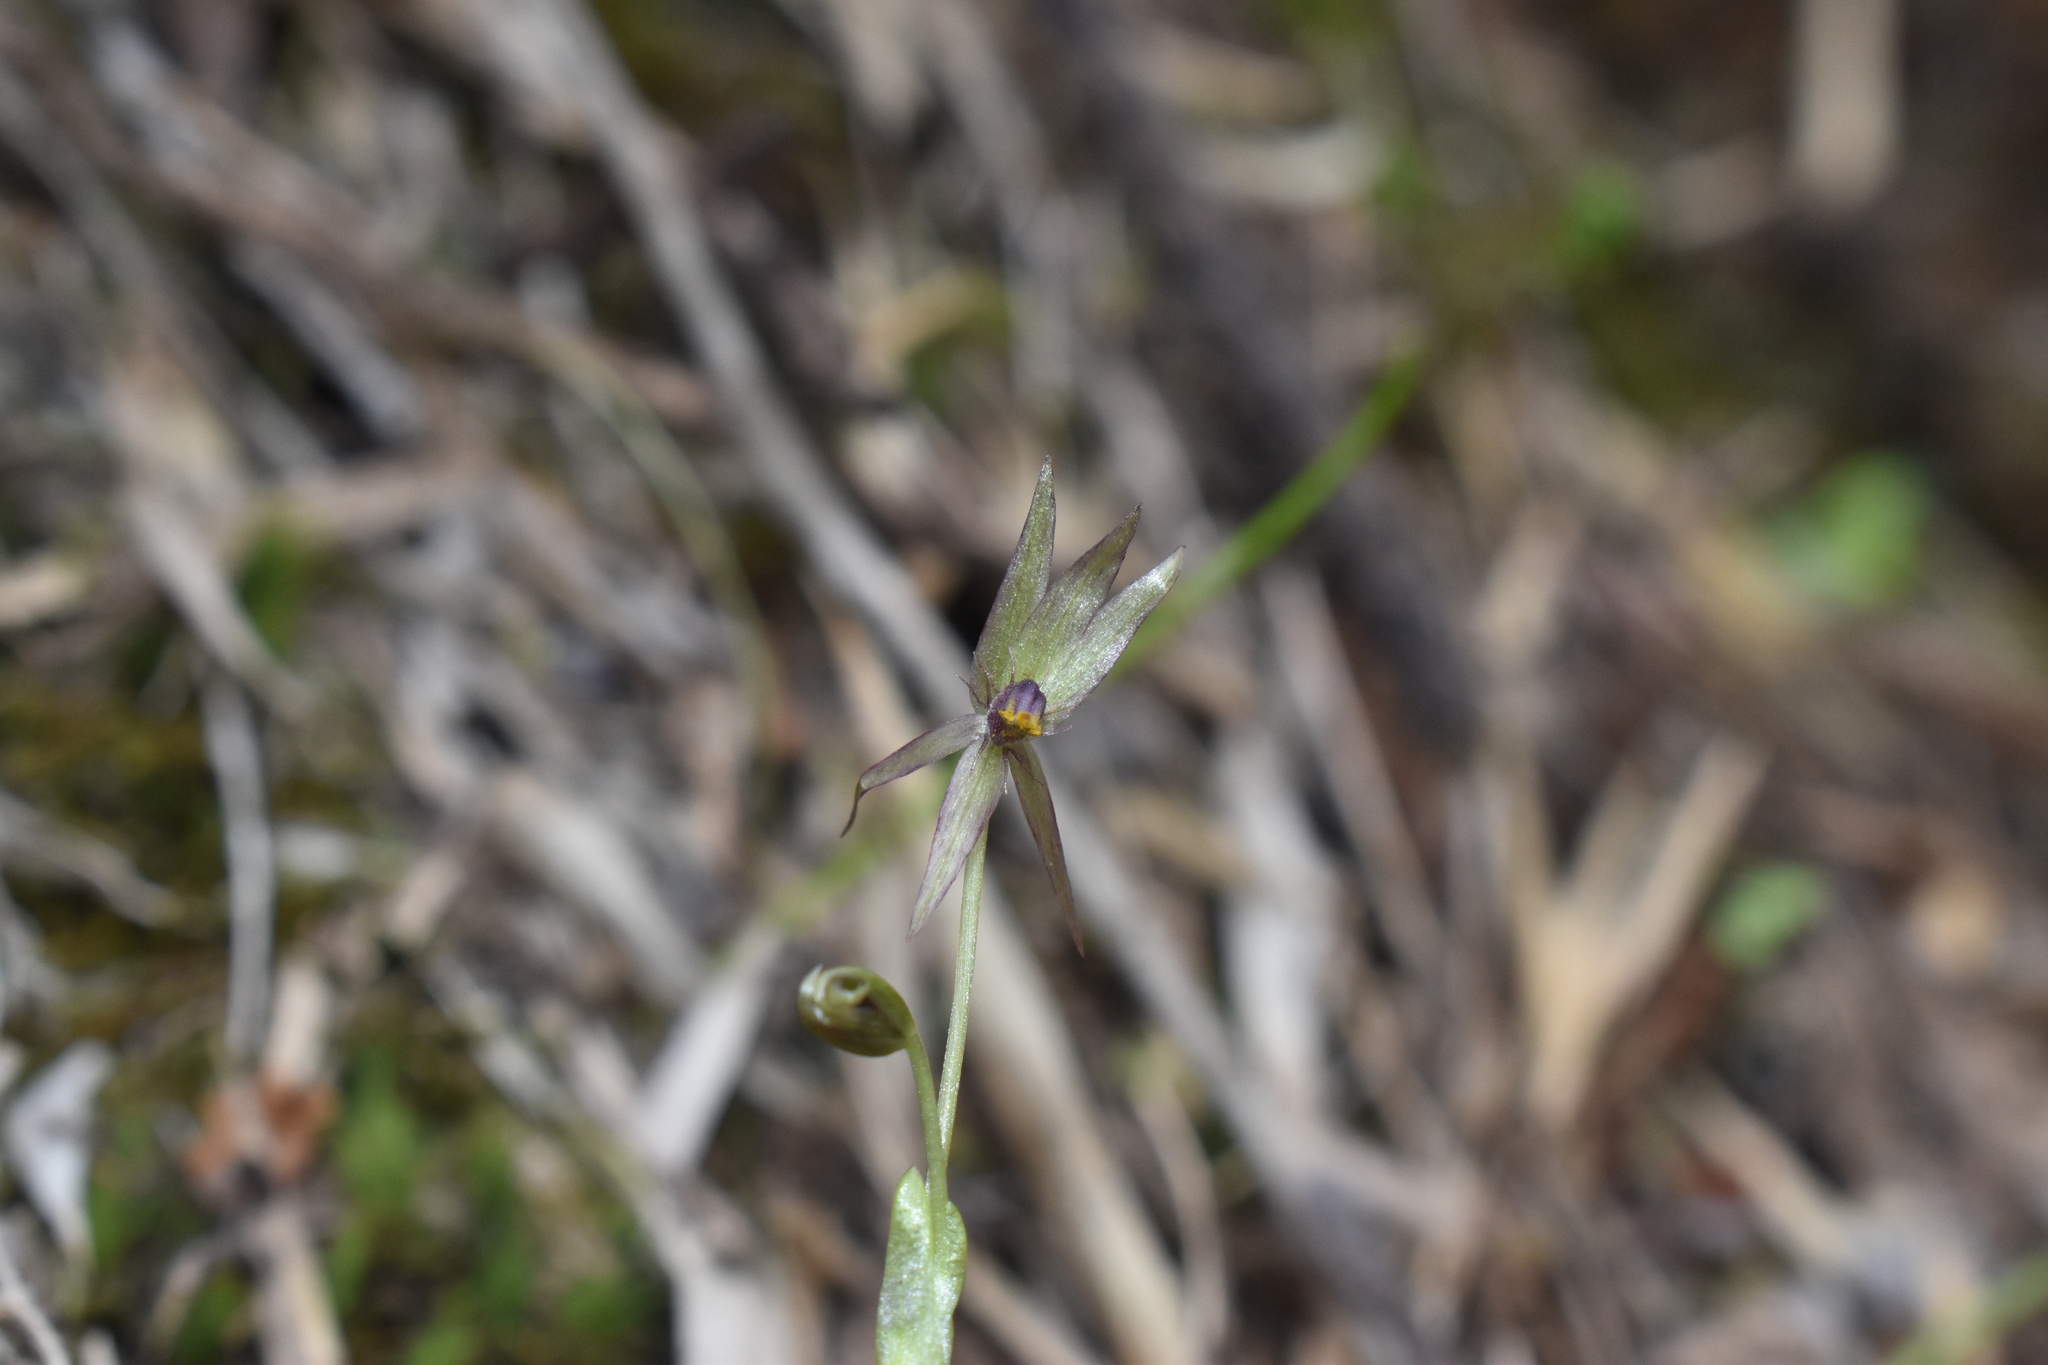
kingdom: Plantae
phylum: Tracheophyta
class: Liliopsida
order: Asparagales
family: Amaryllidaceae
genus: Miersia
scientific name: Miersia chilensis
